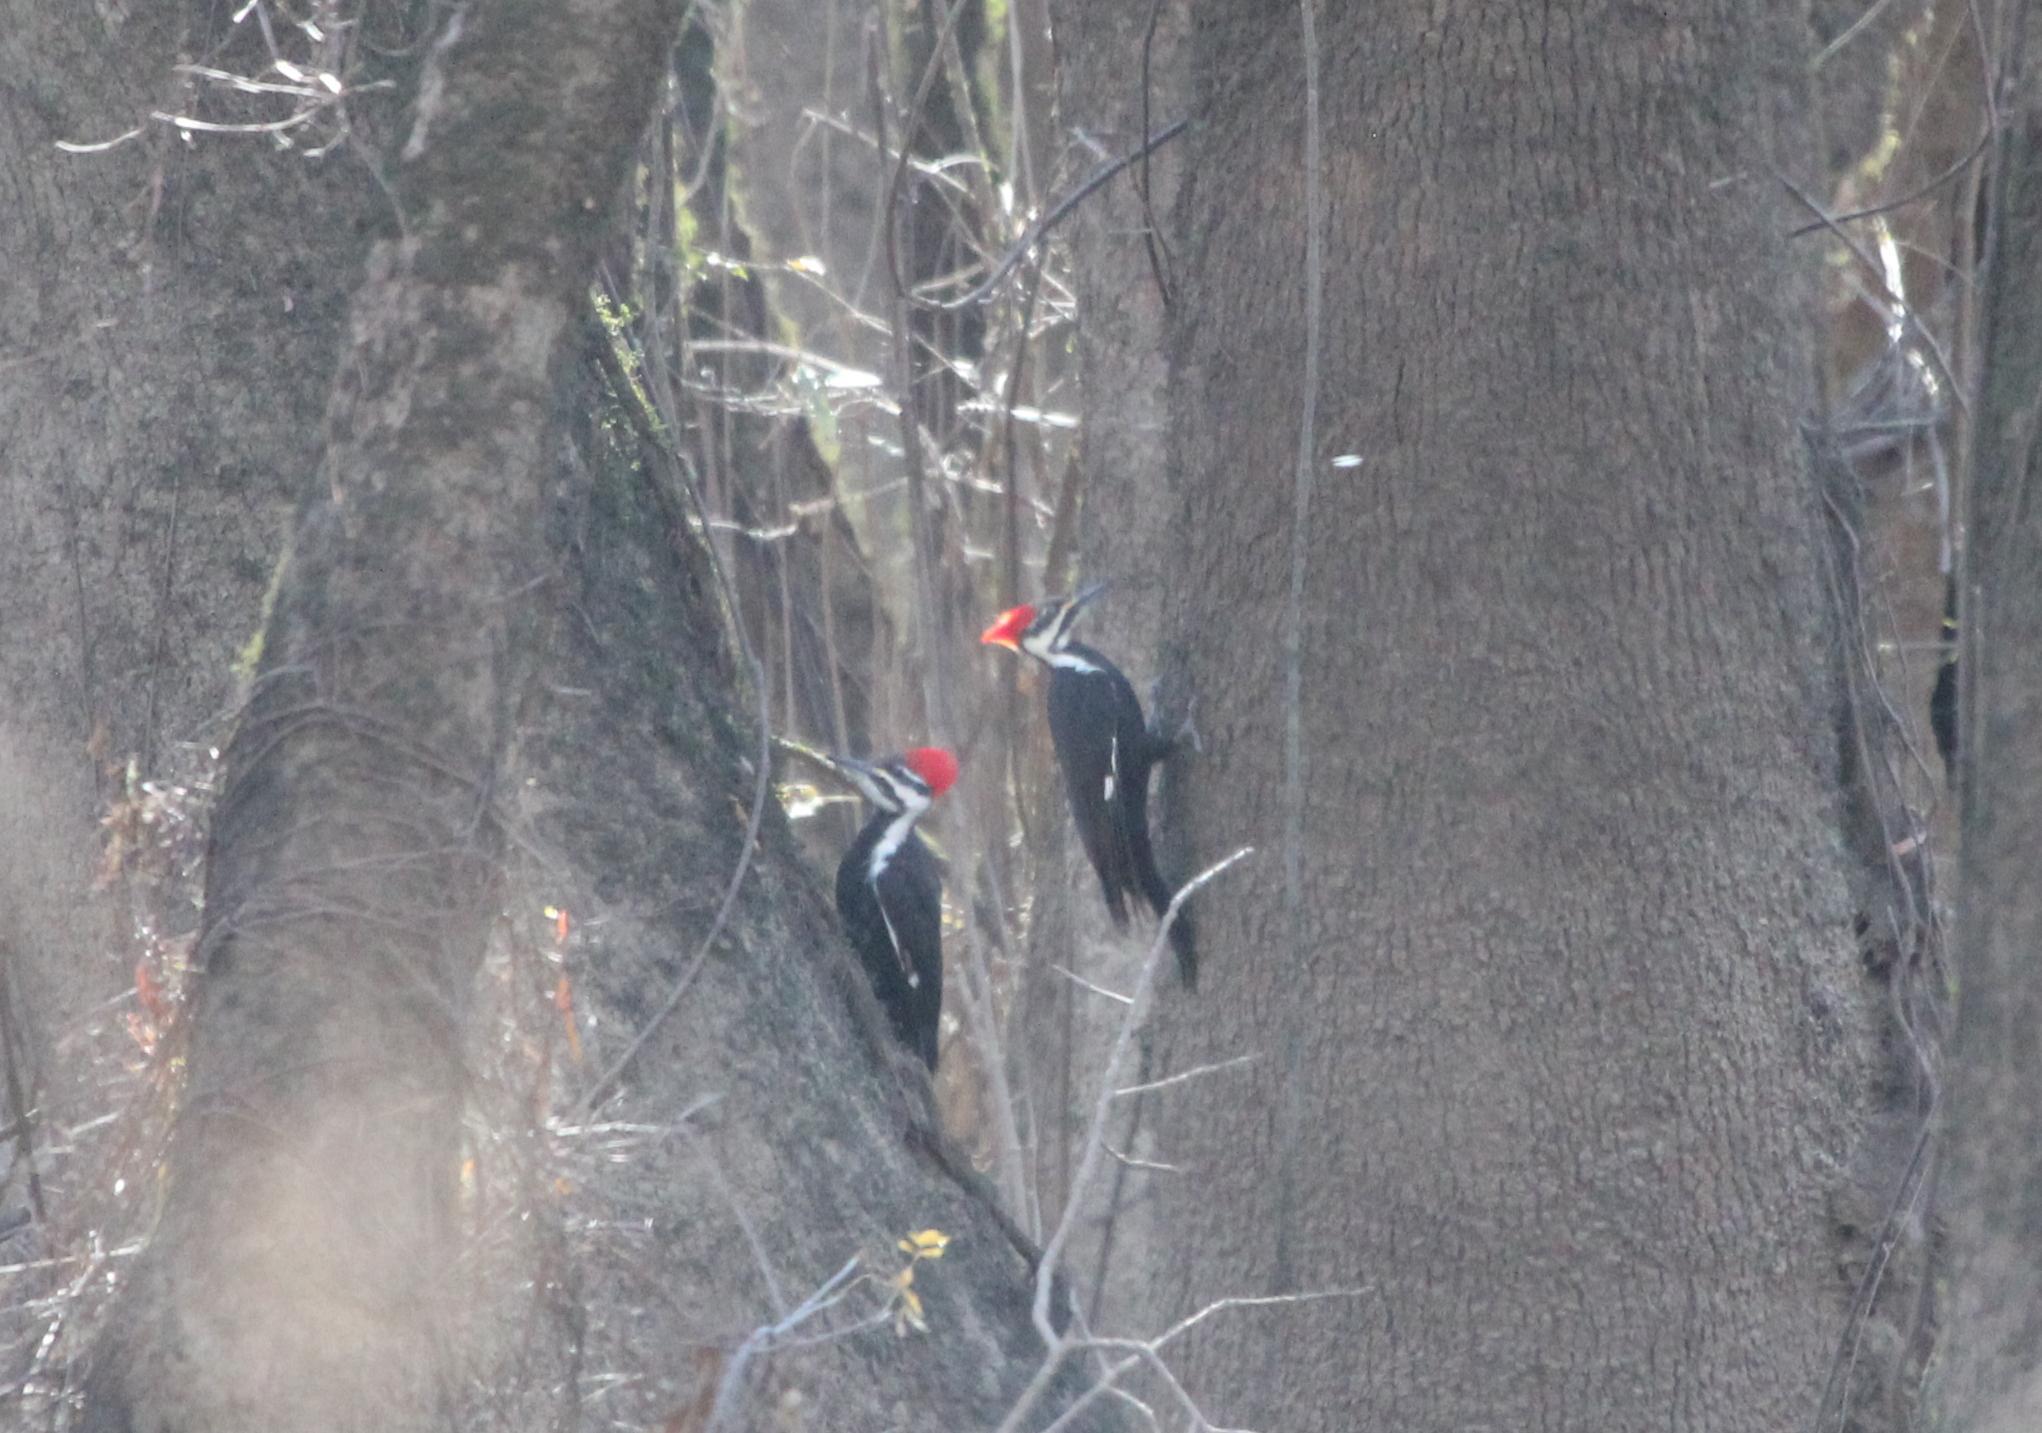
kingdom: Animalia
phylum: Chordata
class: Aves
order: Piciformes
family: Picidae
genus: Dryocopus
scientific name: Dryocopus pileatus
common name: Pileated woodpecker
